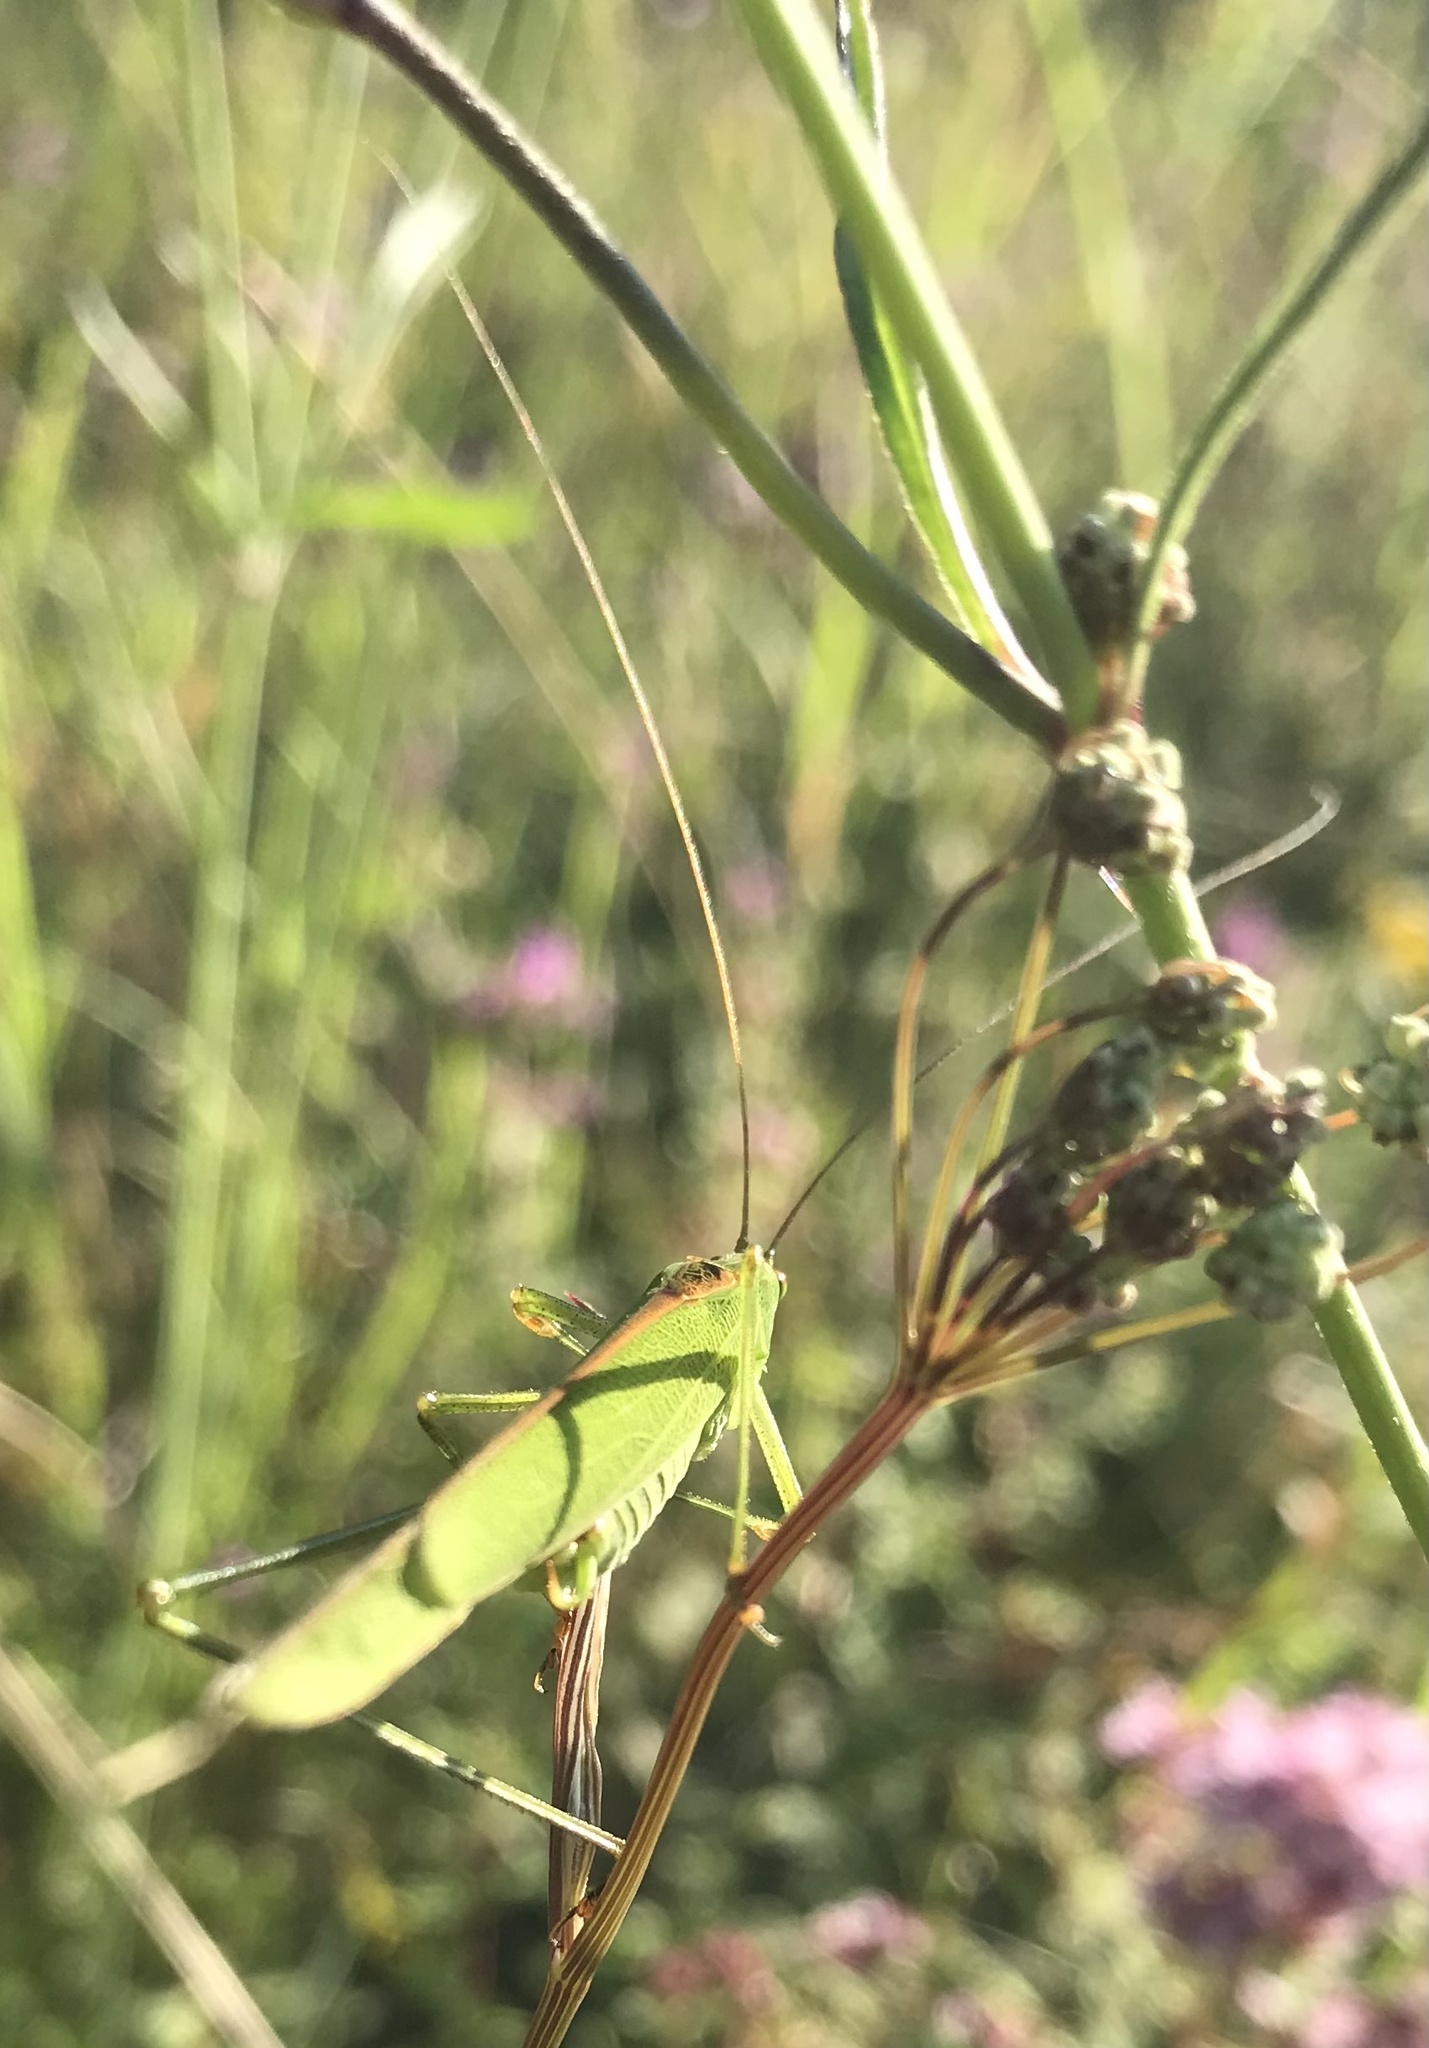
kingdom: Animalia
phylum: Arthropoda
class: Insecta
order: Orthoptera
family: Tettigoniidae
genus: Phaneroptera
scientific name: Phaneroptera falcata
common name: Sickle-bearing bush-cricket
